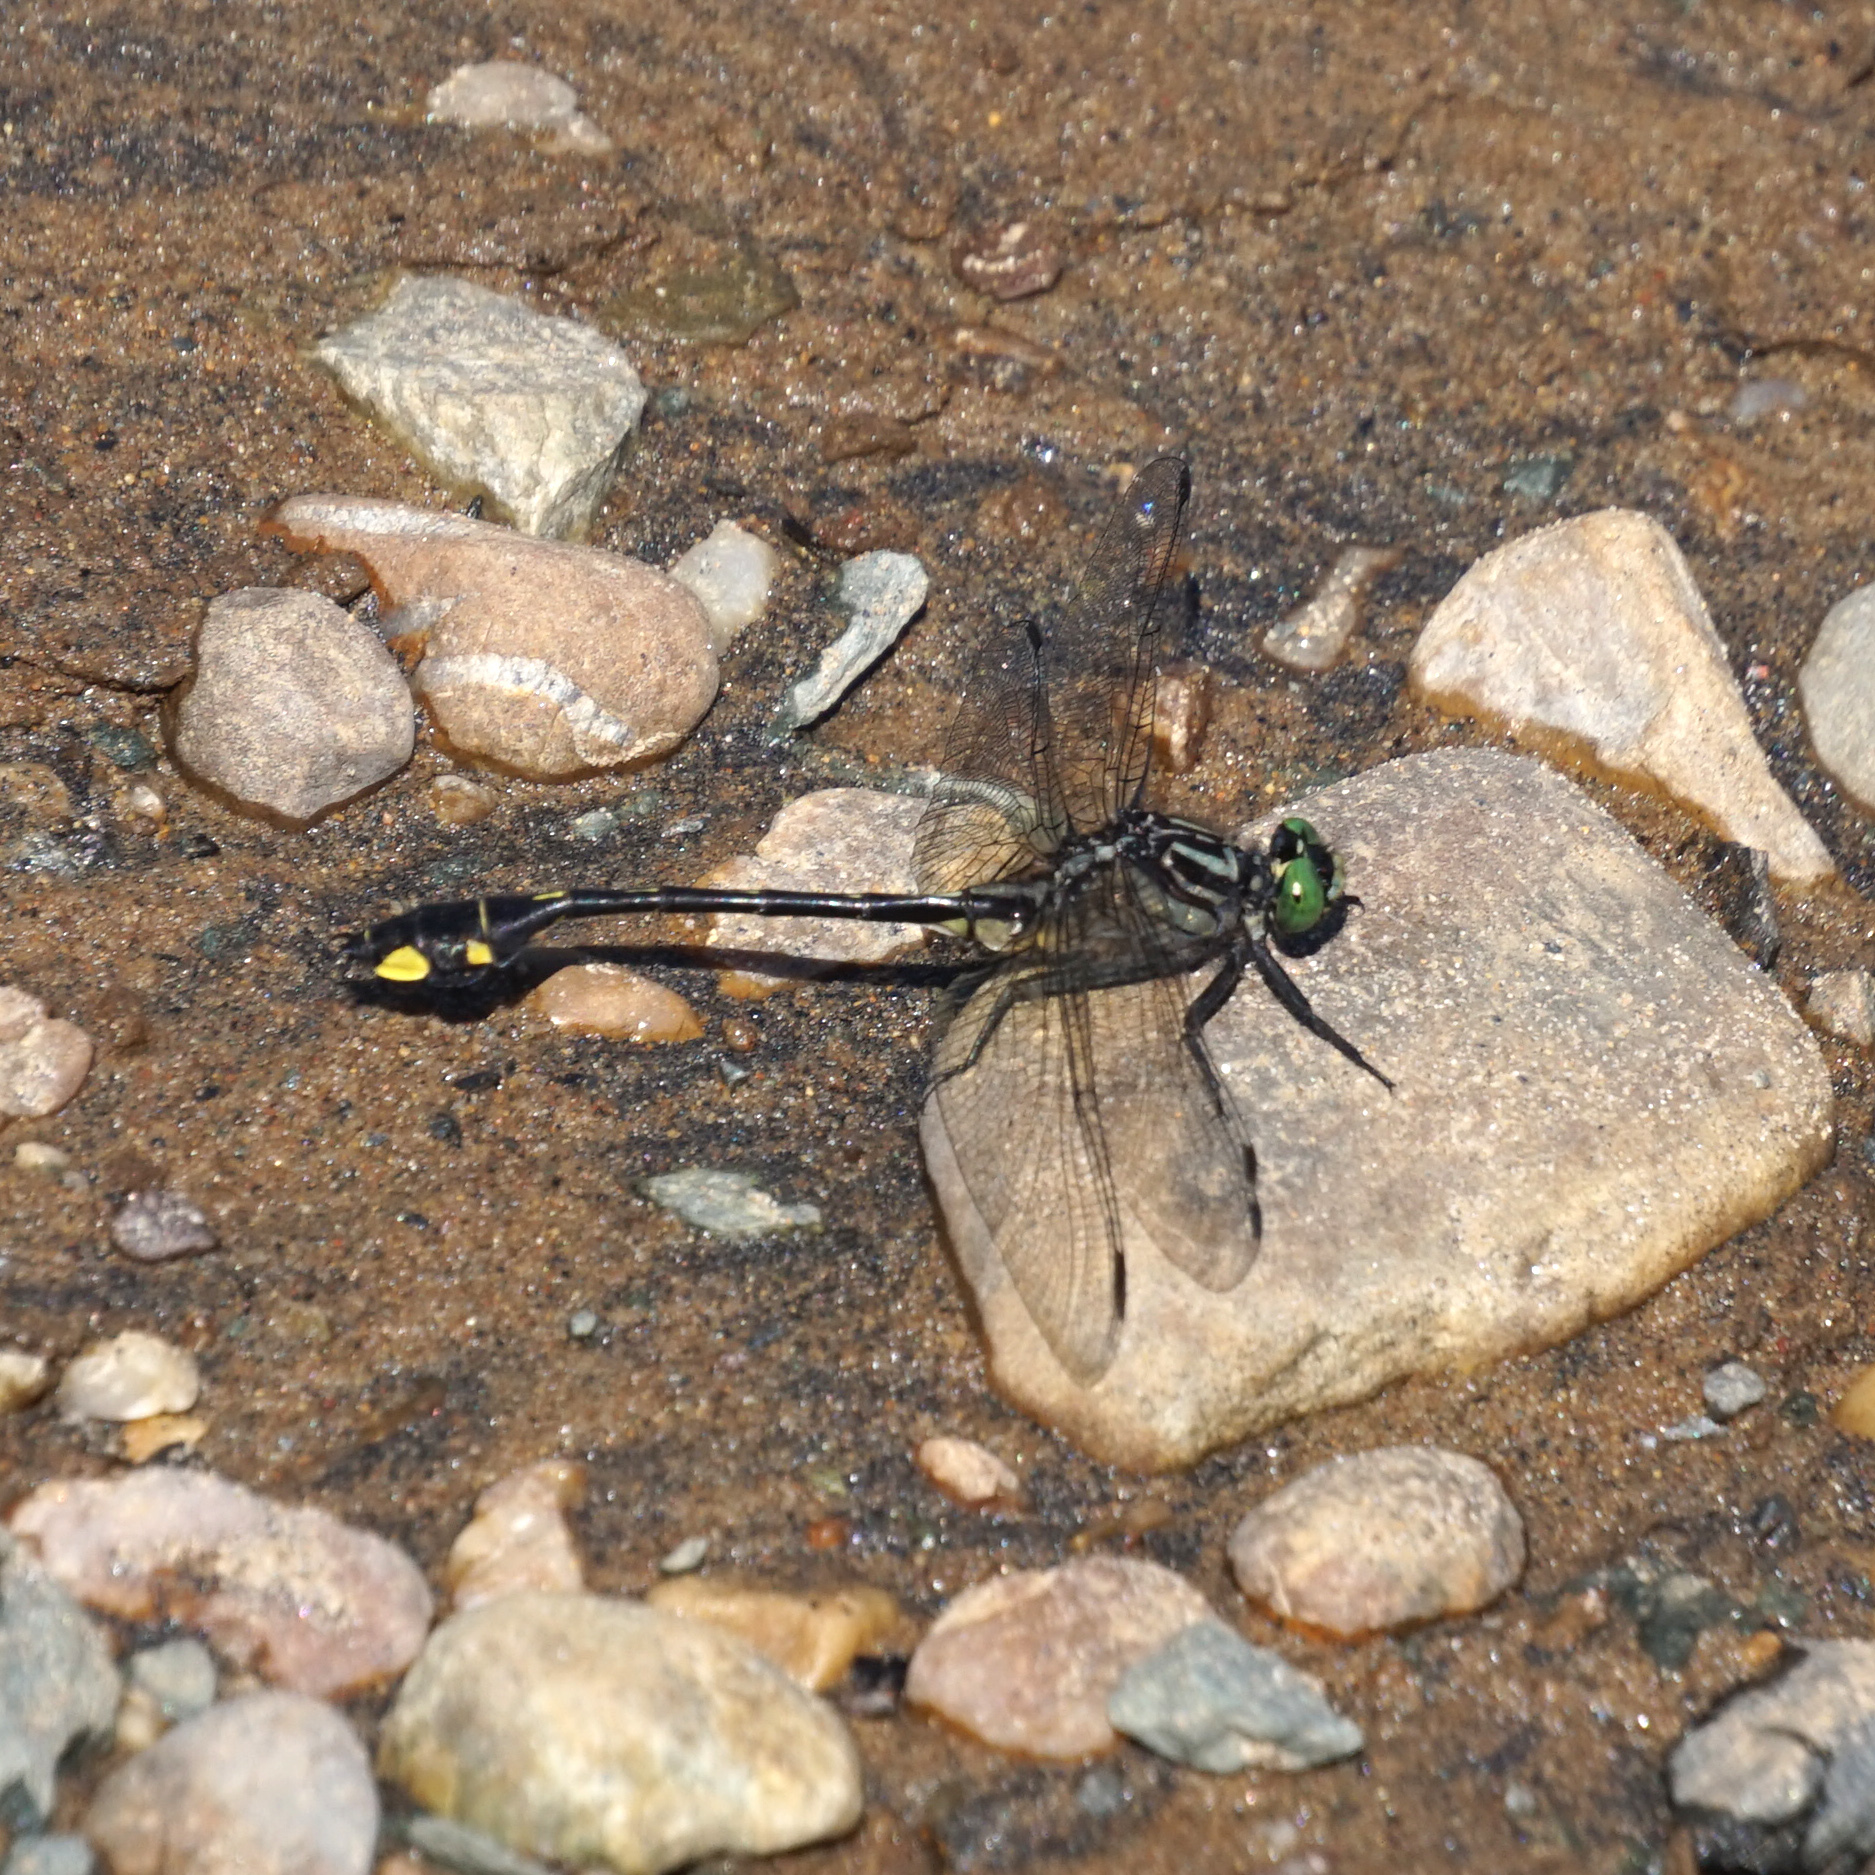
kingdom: Animalia
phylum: Arthropoda
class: Insecta
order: Odonata
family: Gomphidae
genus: Gomphurus
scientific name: Gomphurus vastus
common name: Cobra clubtail
